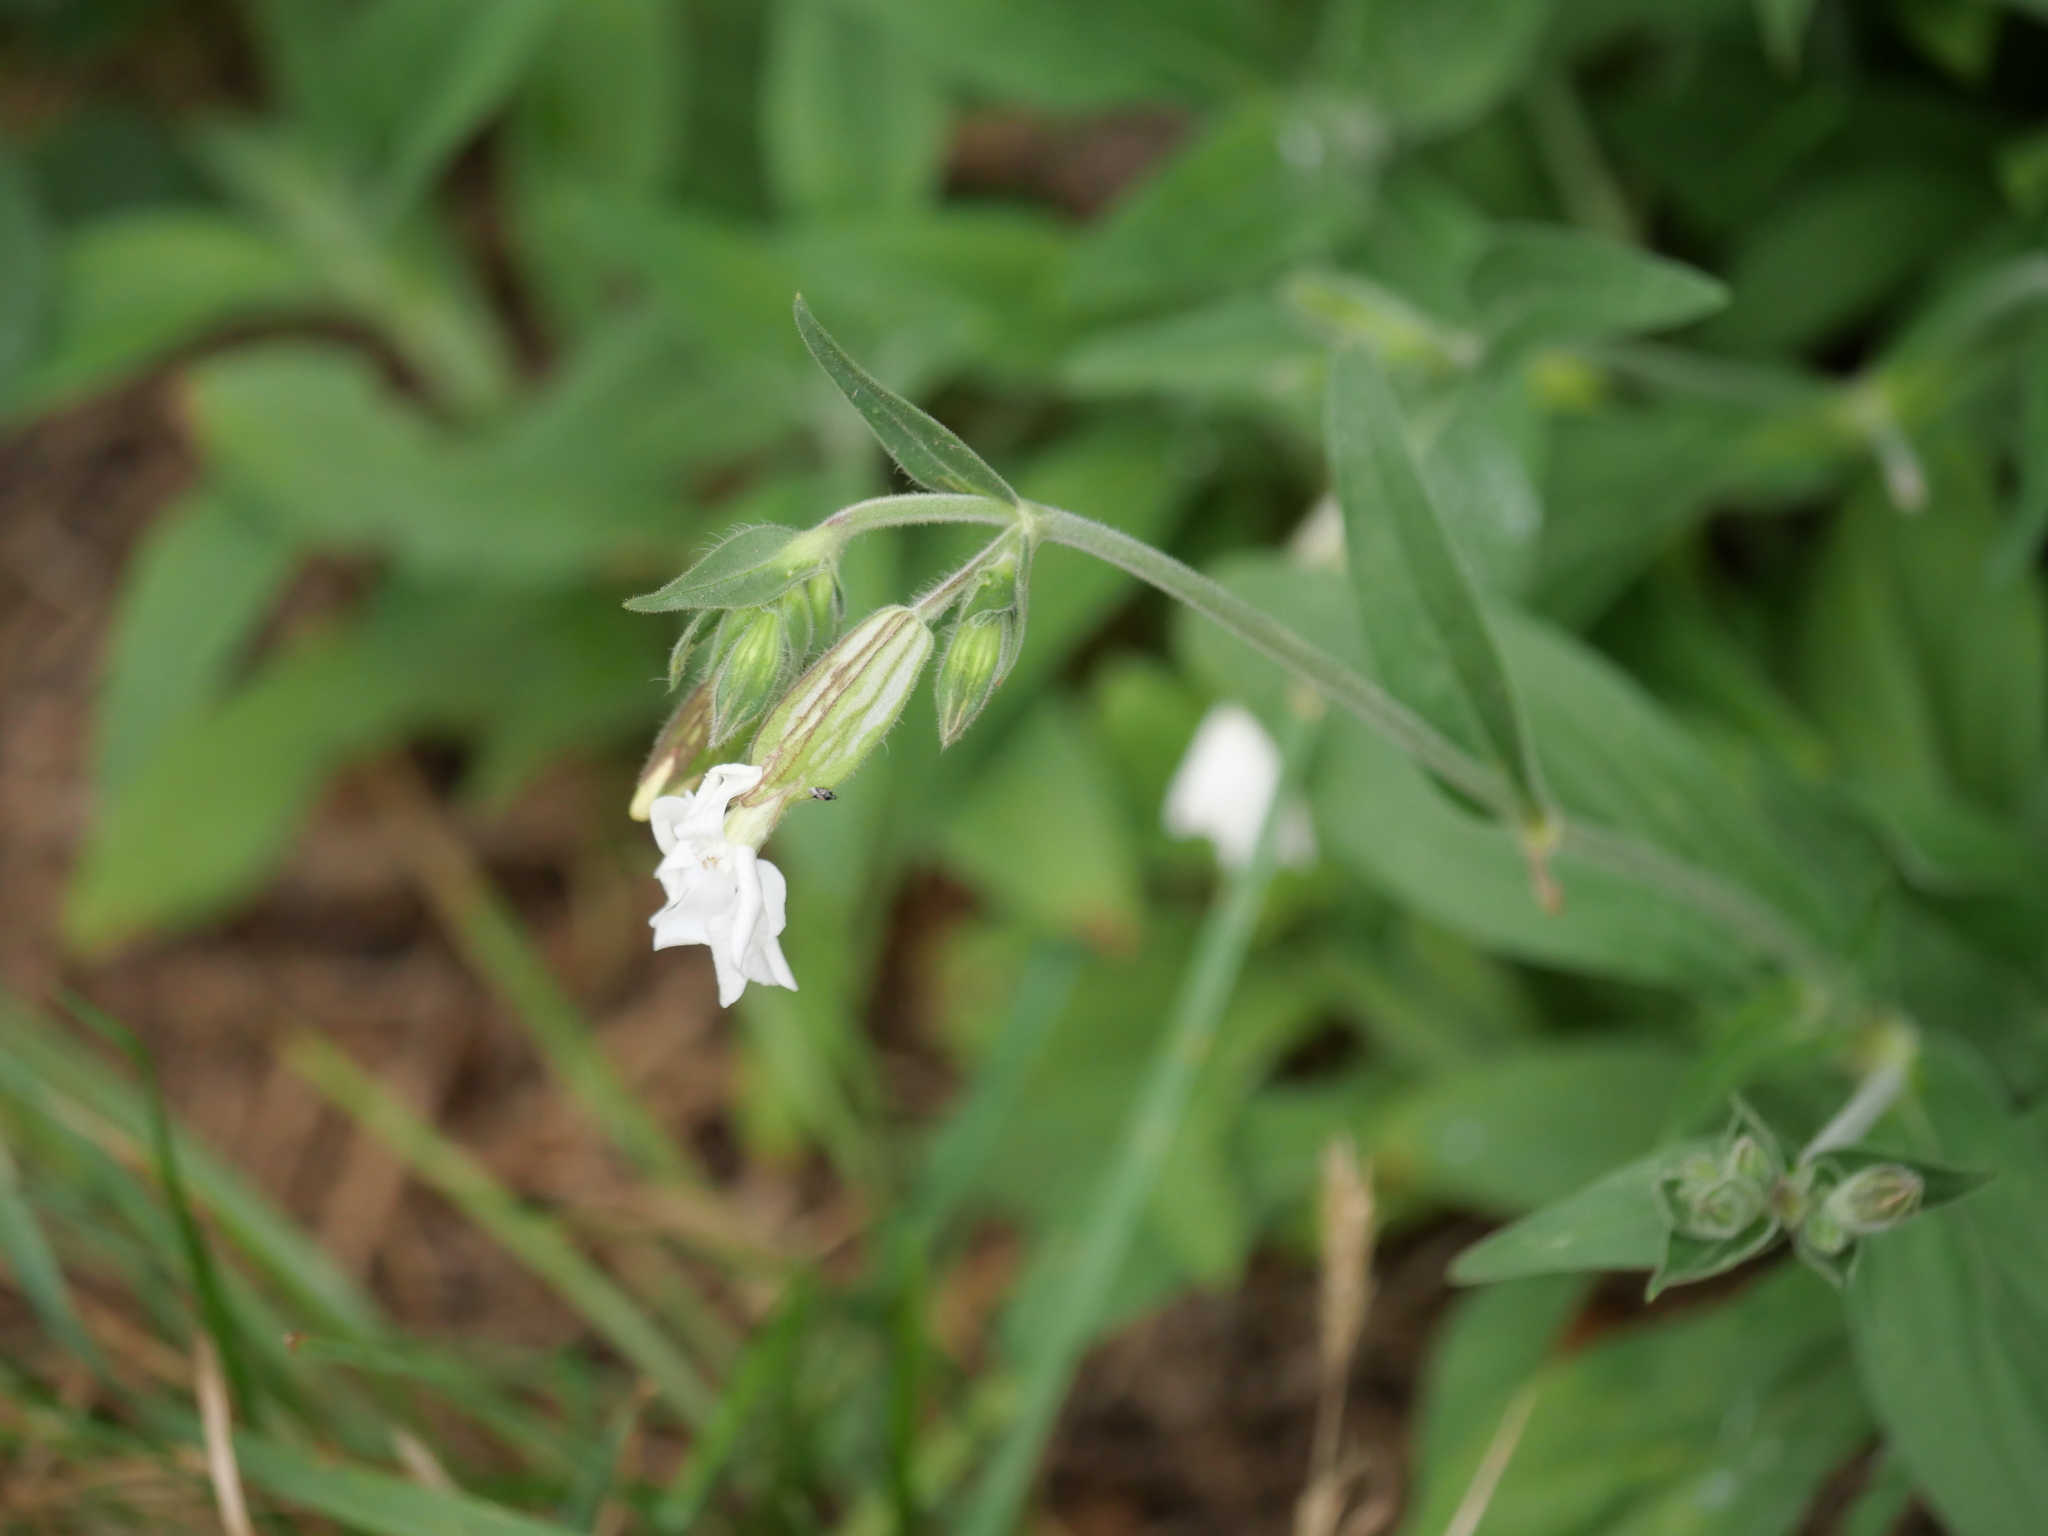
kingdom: Plantae
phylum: Tracheophyta
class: Magnoliopsida
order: Caryophyllales
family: Caryophyllaceae
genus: Silene
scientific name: Silene latifolia
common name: White campion
